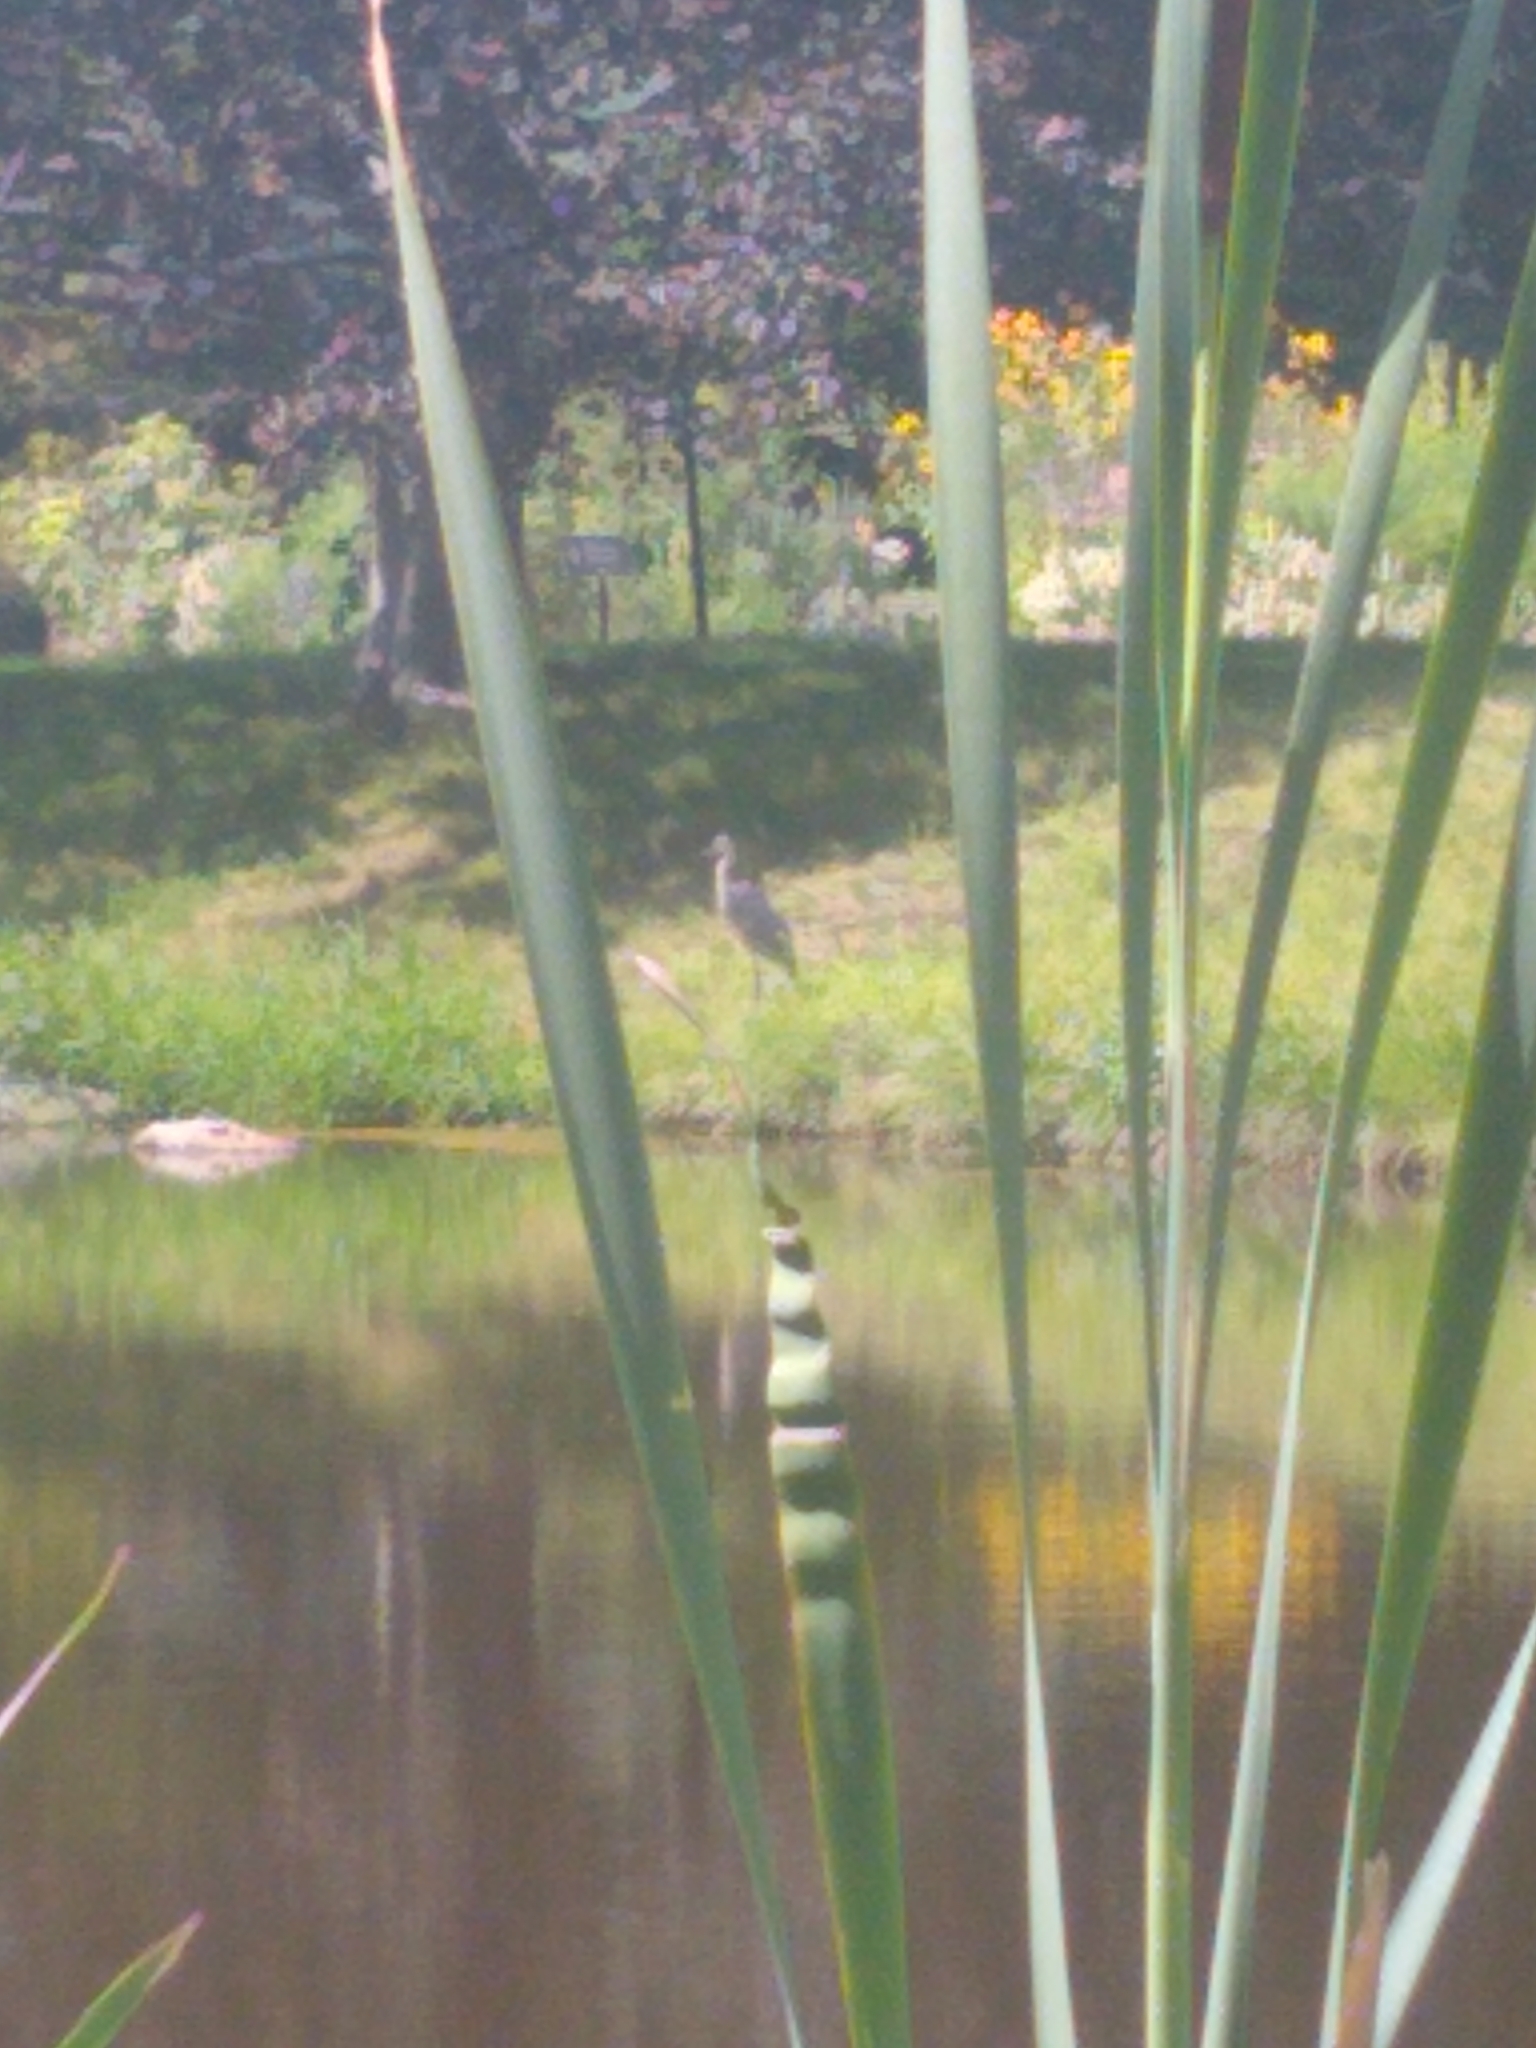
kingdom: Animalia
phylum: Chordata
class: Aves
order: Pelecaniformes
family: Ardeidae
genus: Ardea
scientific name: Ardea herodias
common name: Great blue heron
